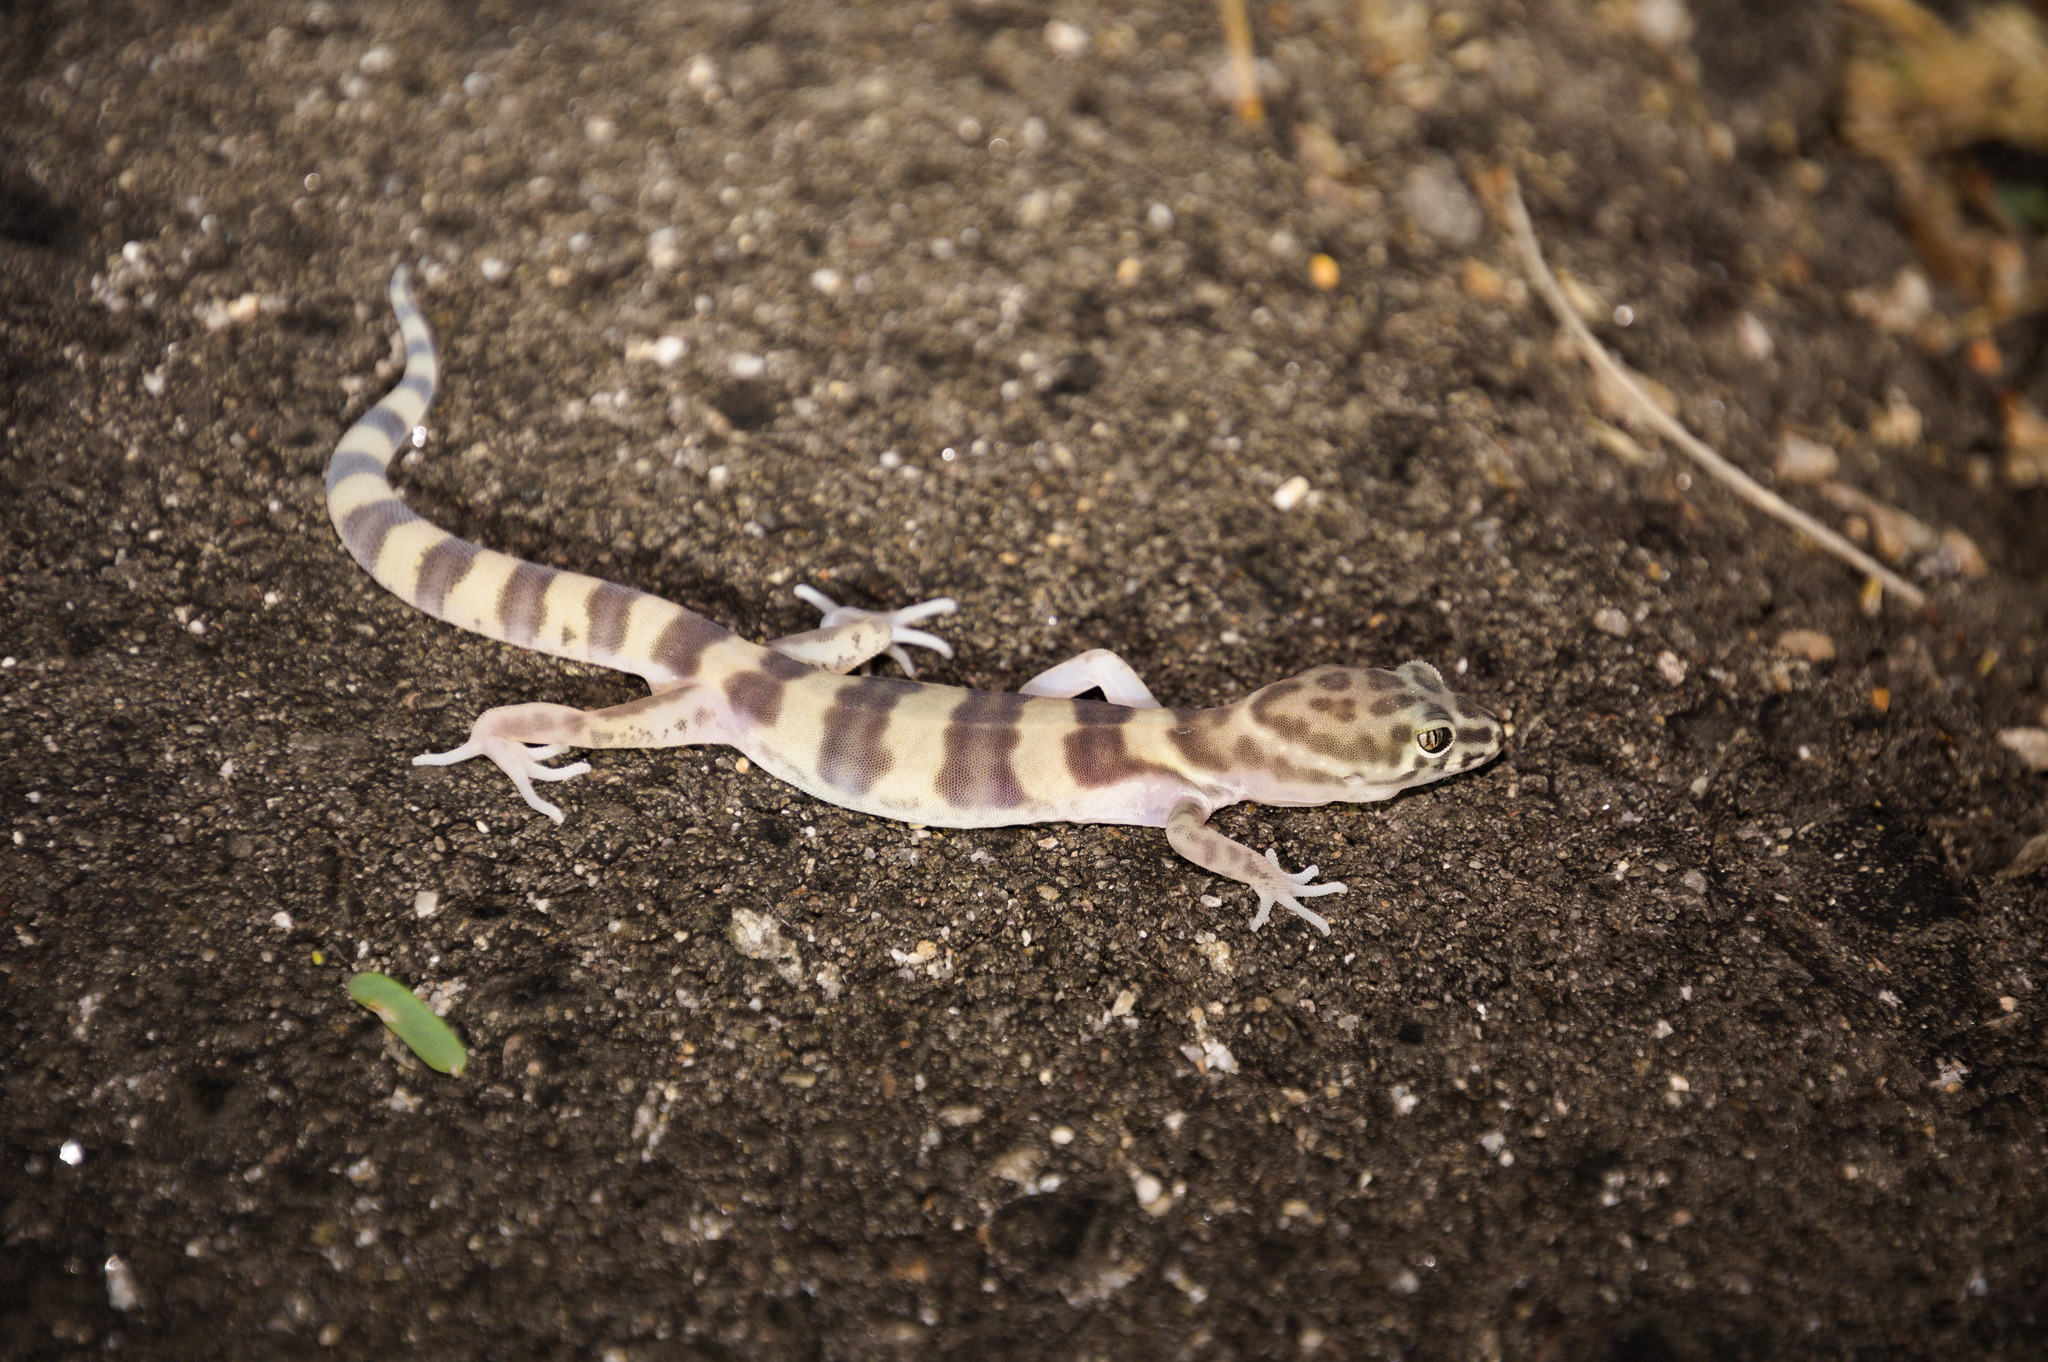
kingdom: Animalia
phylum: Chordata
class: Squamata
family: Eublepharidae
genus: Coleonyx
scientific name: Coleonyx variegatus
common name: Western banded gecko
